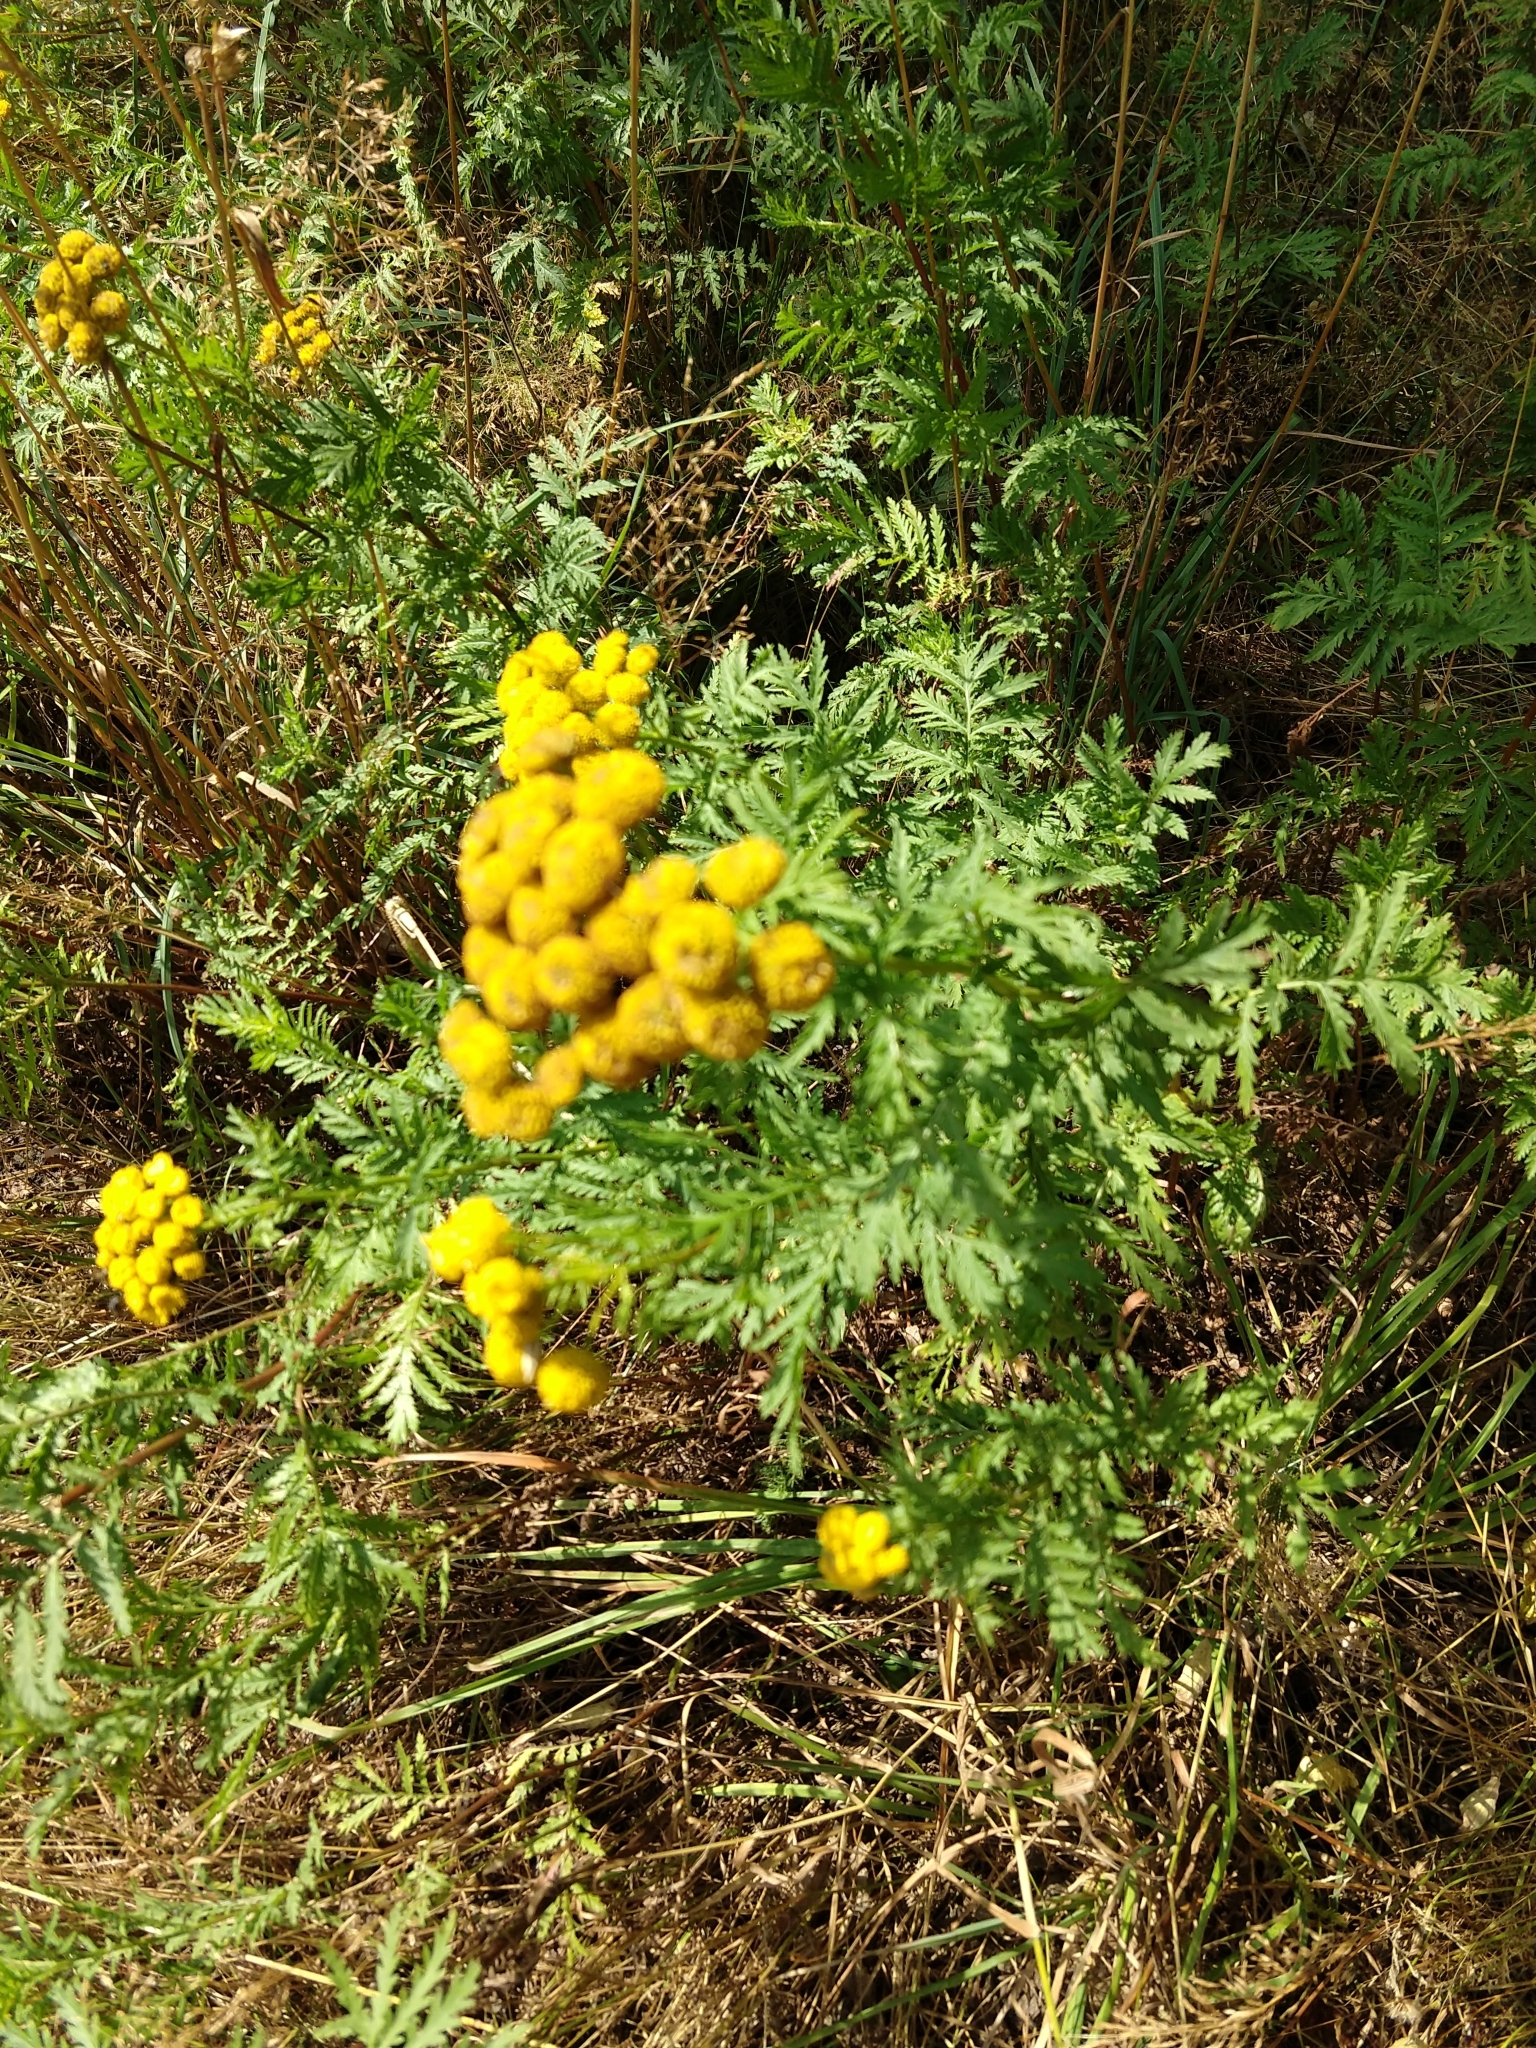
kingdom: Plantae
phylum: Tracheophyta
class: Magnoliopsida
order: Asterales
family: Asteraceae
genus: Tanacetum
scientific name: Tanacetum vulgare
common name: Common tansy
